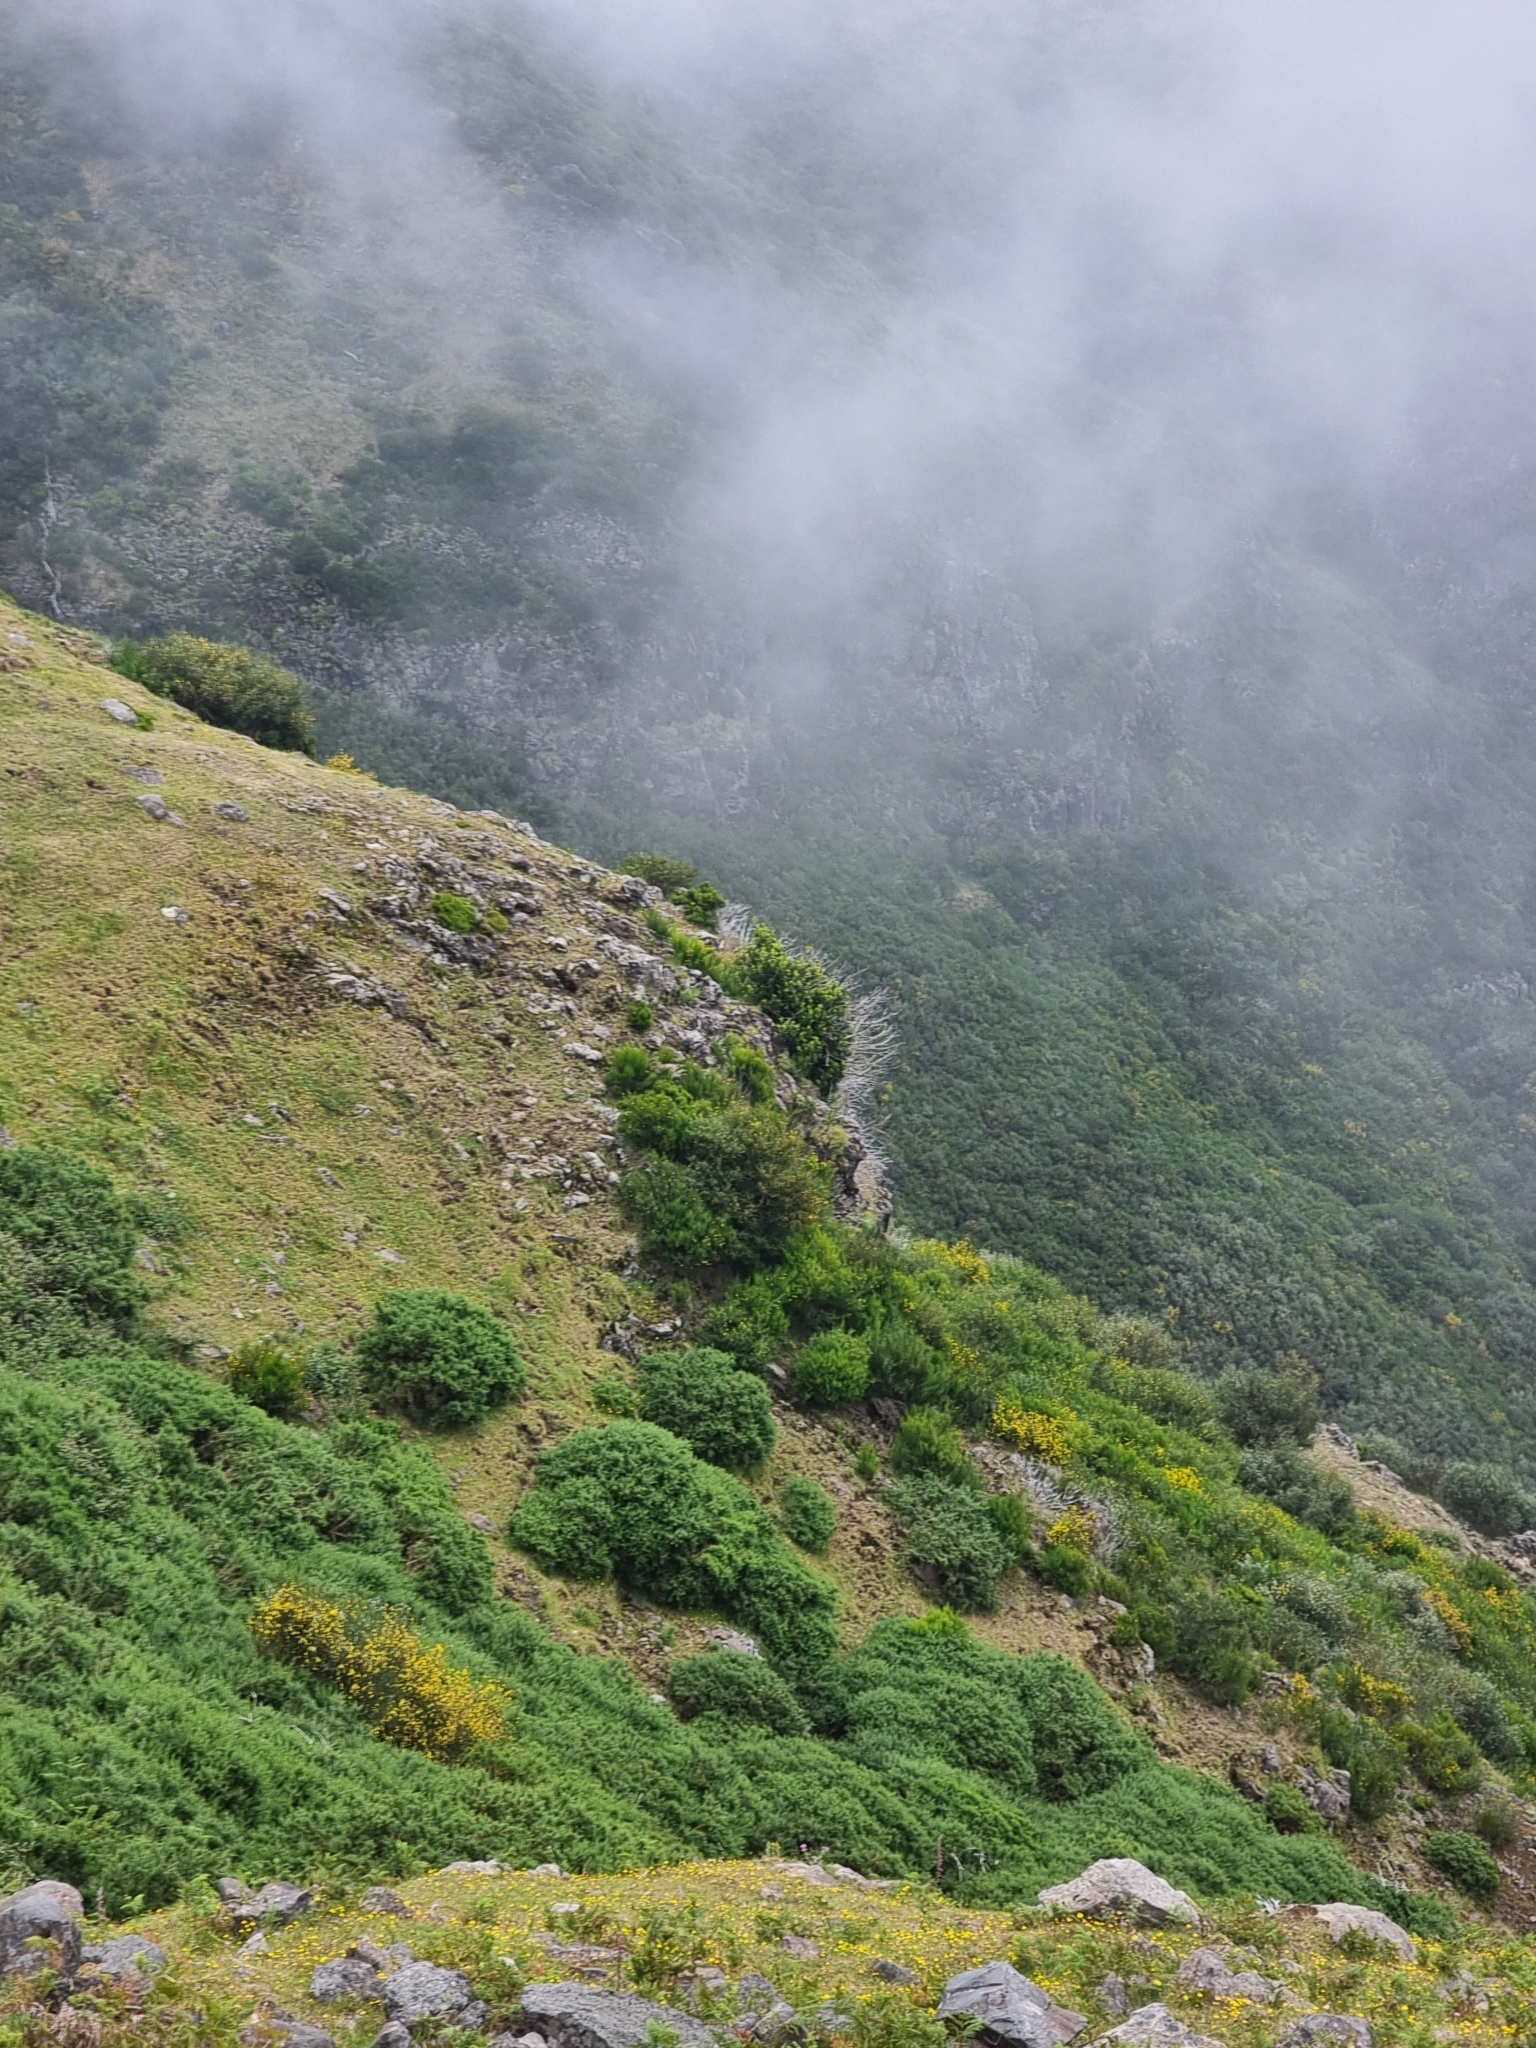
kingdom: Plantae
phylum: Tracheophyta
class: Magnoliopsida
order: Fagales
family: Myricaceae
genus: Morella
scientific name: Morella faya
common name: Firetree
